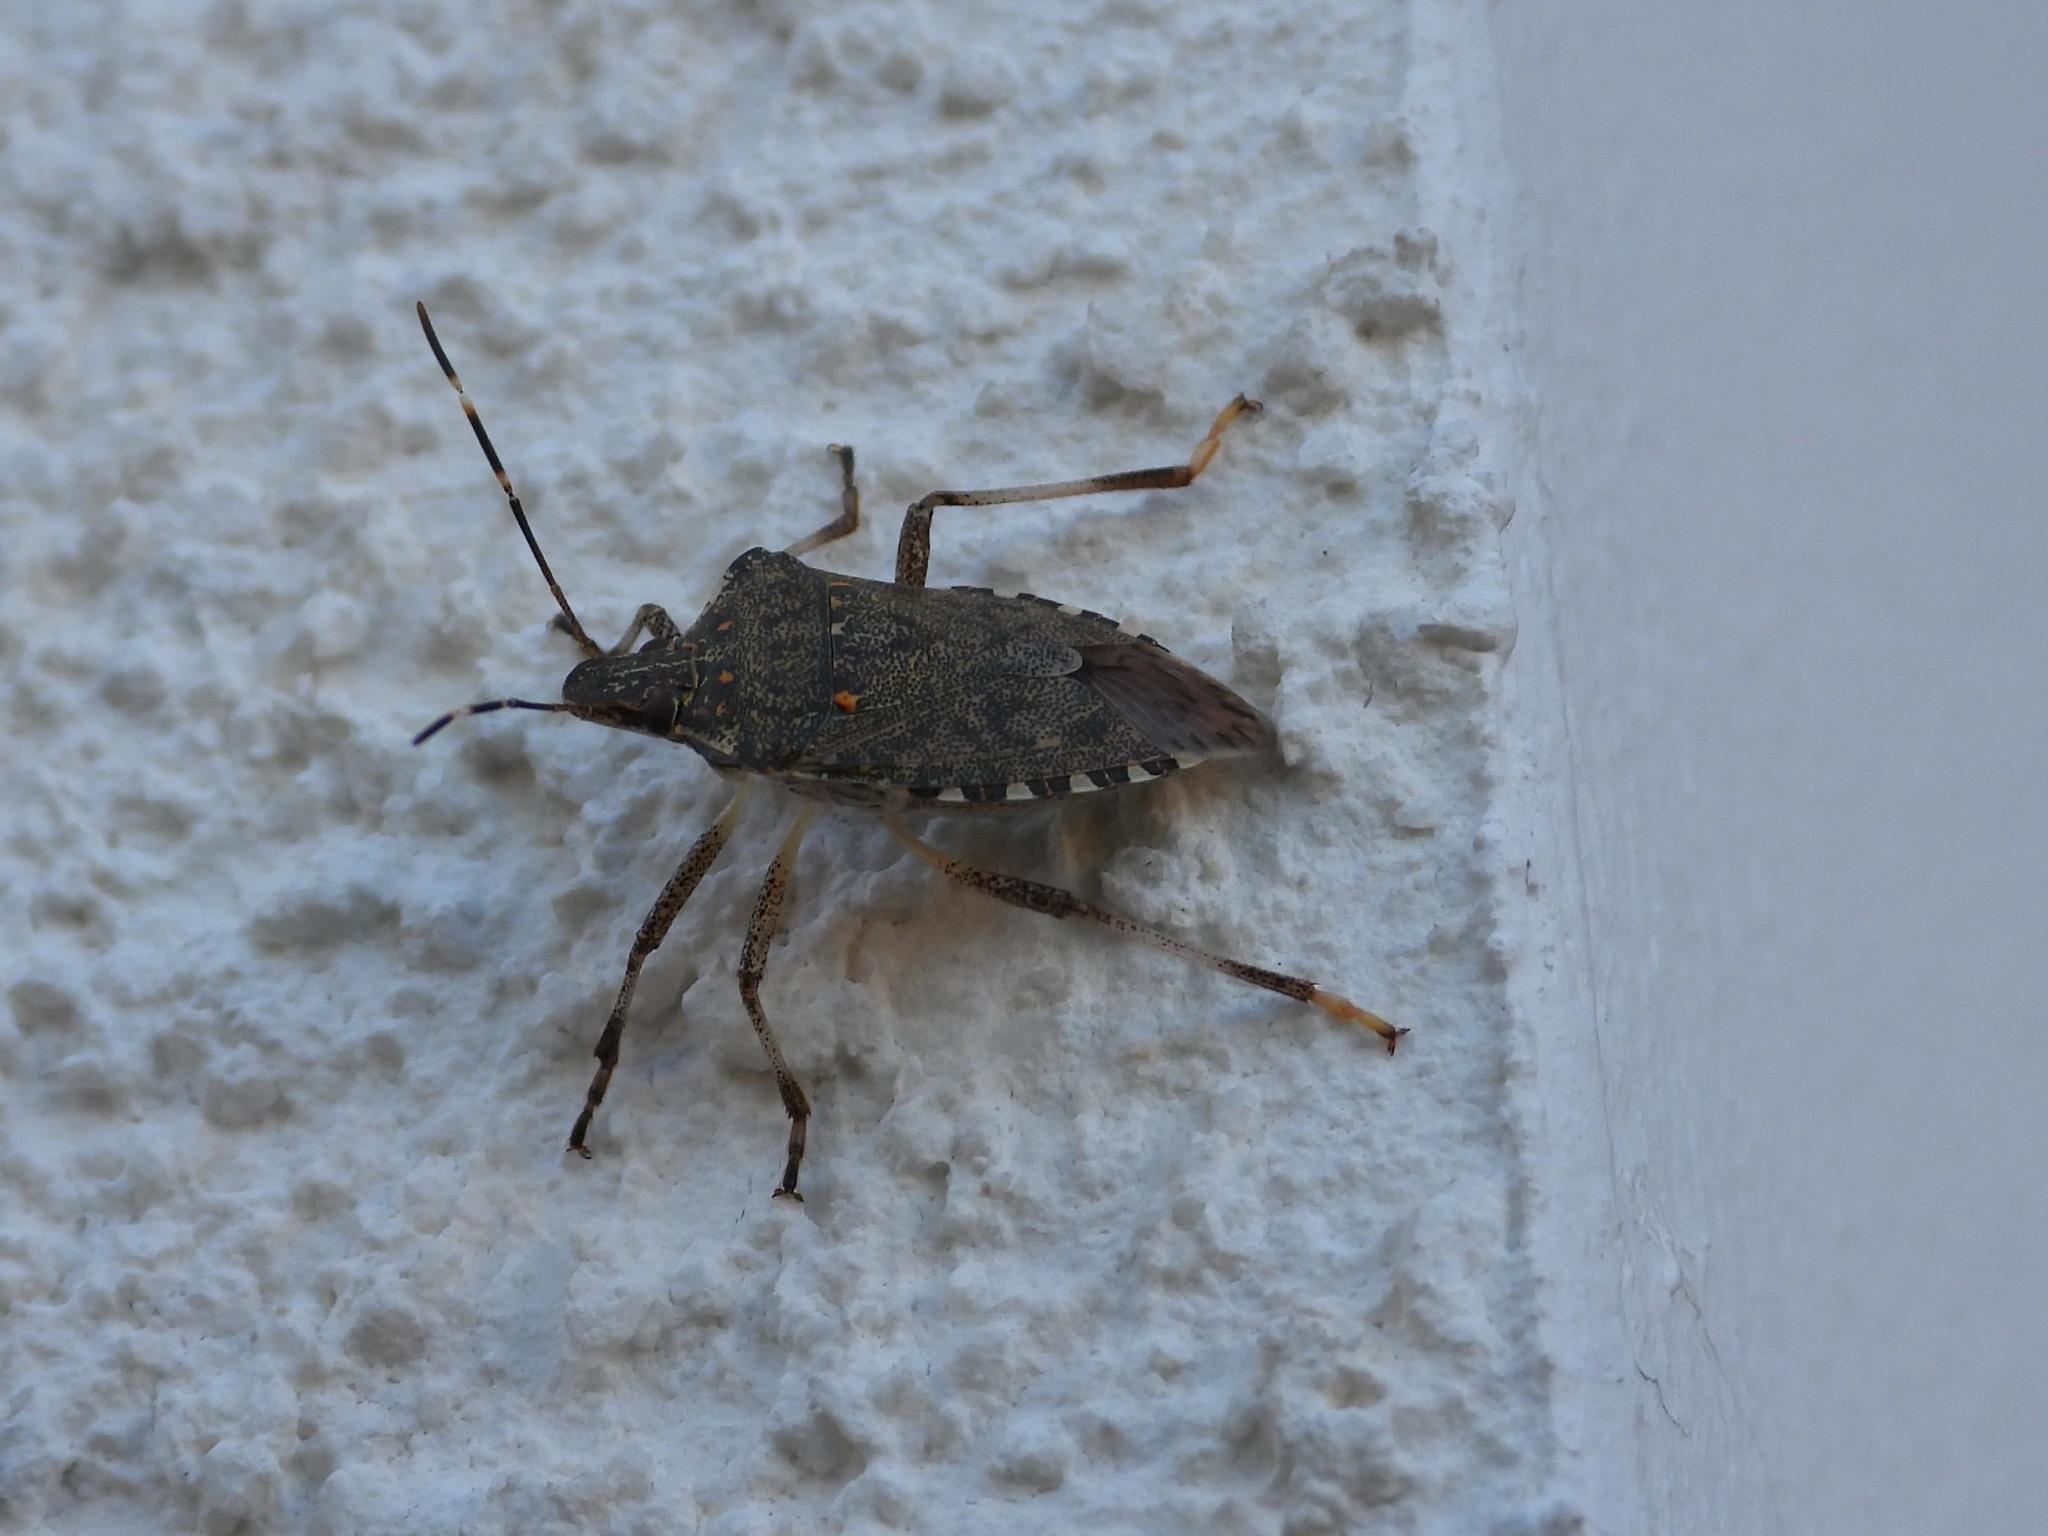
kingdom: Animalia
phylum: Arthropoda
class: Insecta
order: Hemiptera
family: Pentatomidae
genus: Halyomorpha
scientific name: Halyomorpha halys
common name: Brown marmorated stink bug
